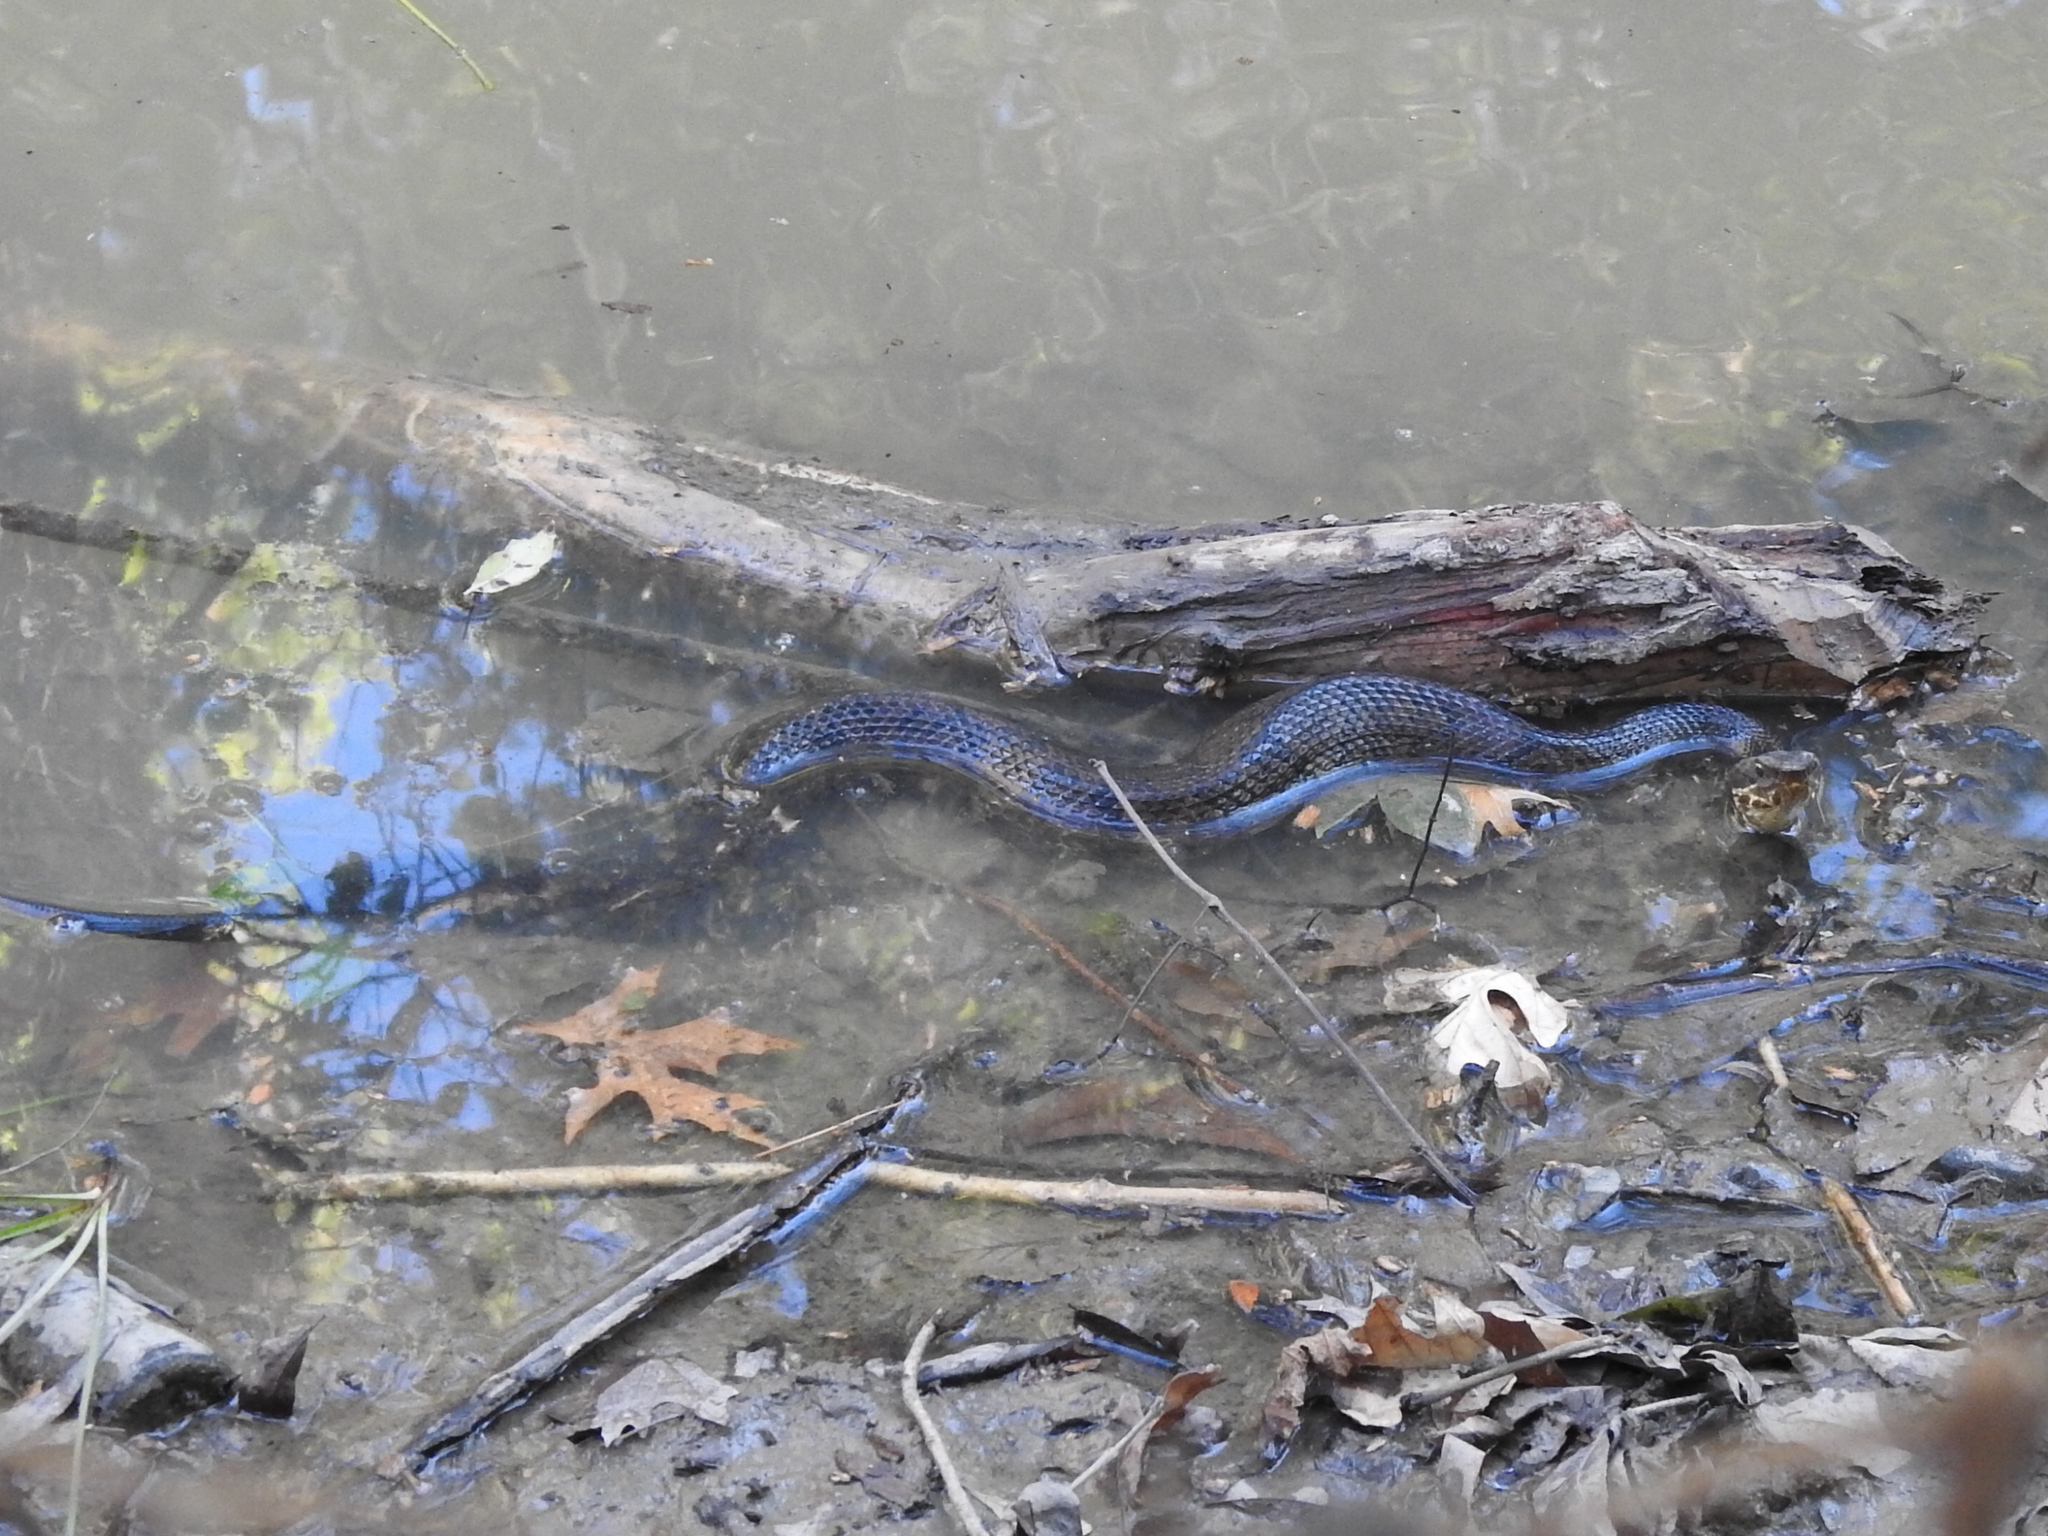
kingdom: Animalia
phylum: Chordata
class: Squamata
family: Viperidae
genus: Agkistrodon
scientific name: Agkistrodon piscivorus
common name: Cottonmouth
